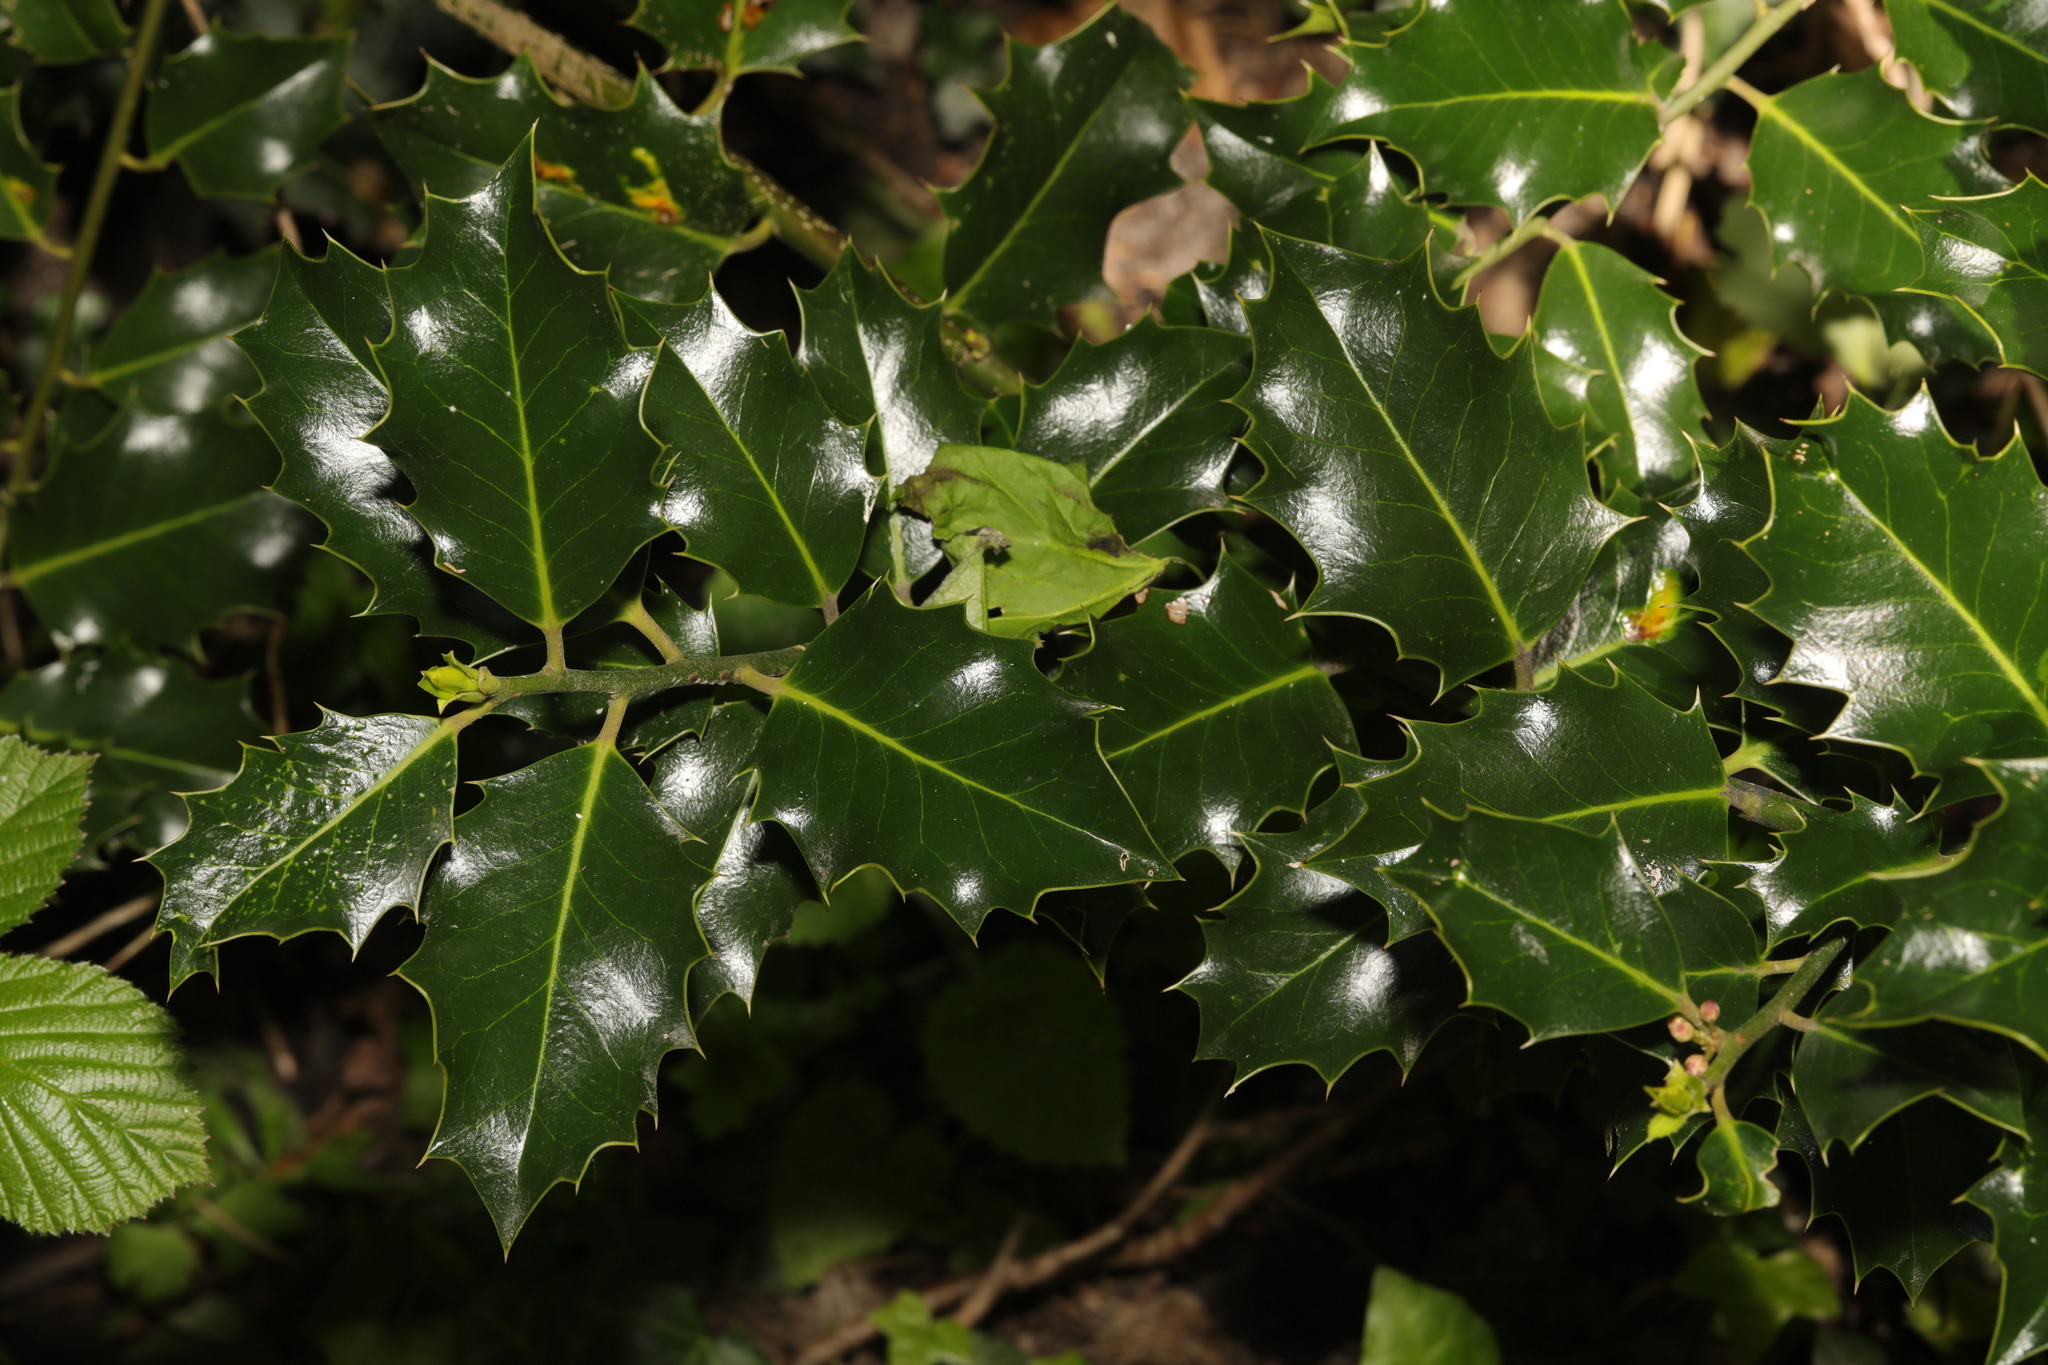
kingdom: Plantae
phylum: Tracheophyta
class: Magnoliopsida
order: Aquifoliales
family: Aquifoliaceae
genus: Ilex
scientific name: Ilex aquifolium
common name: English holly
